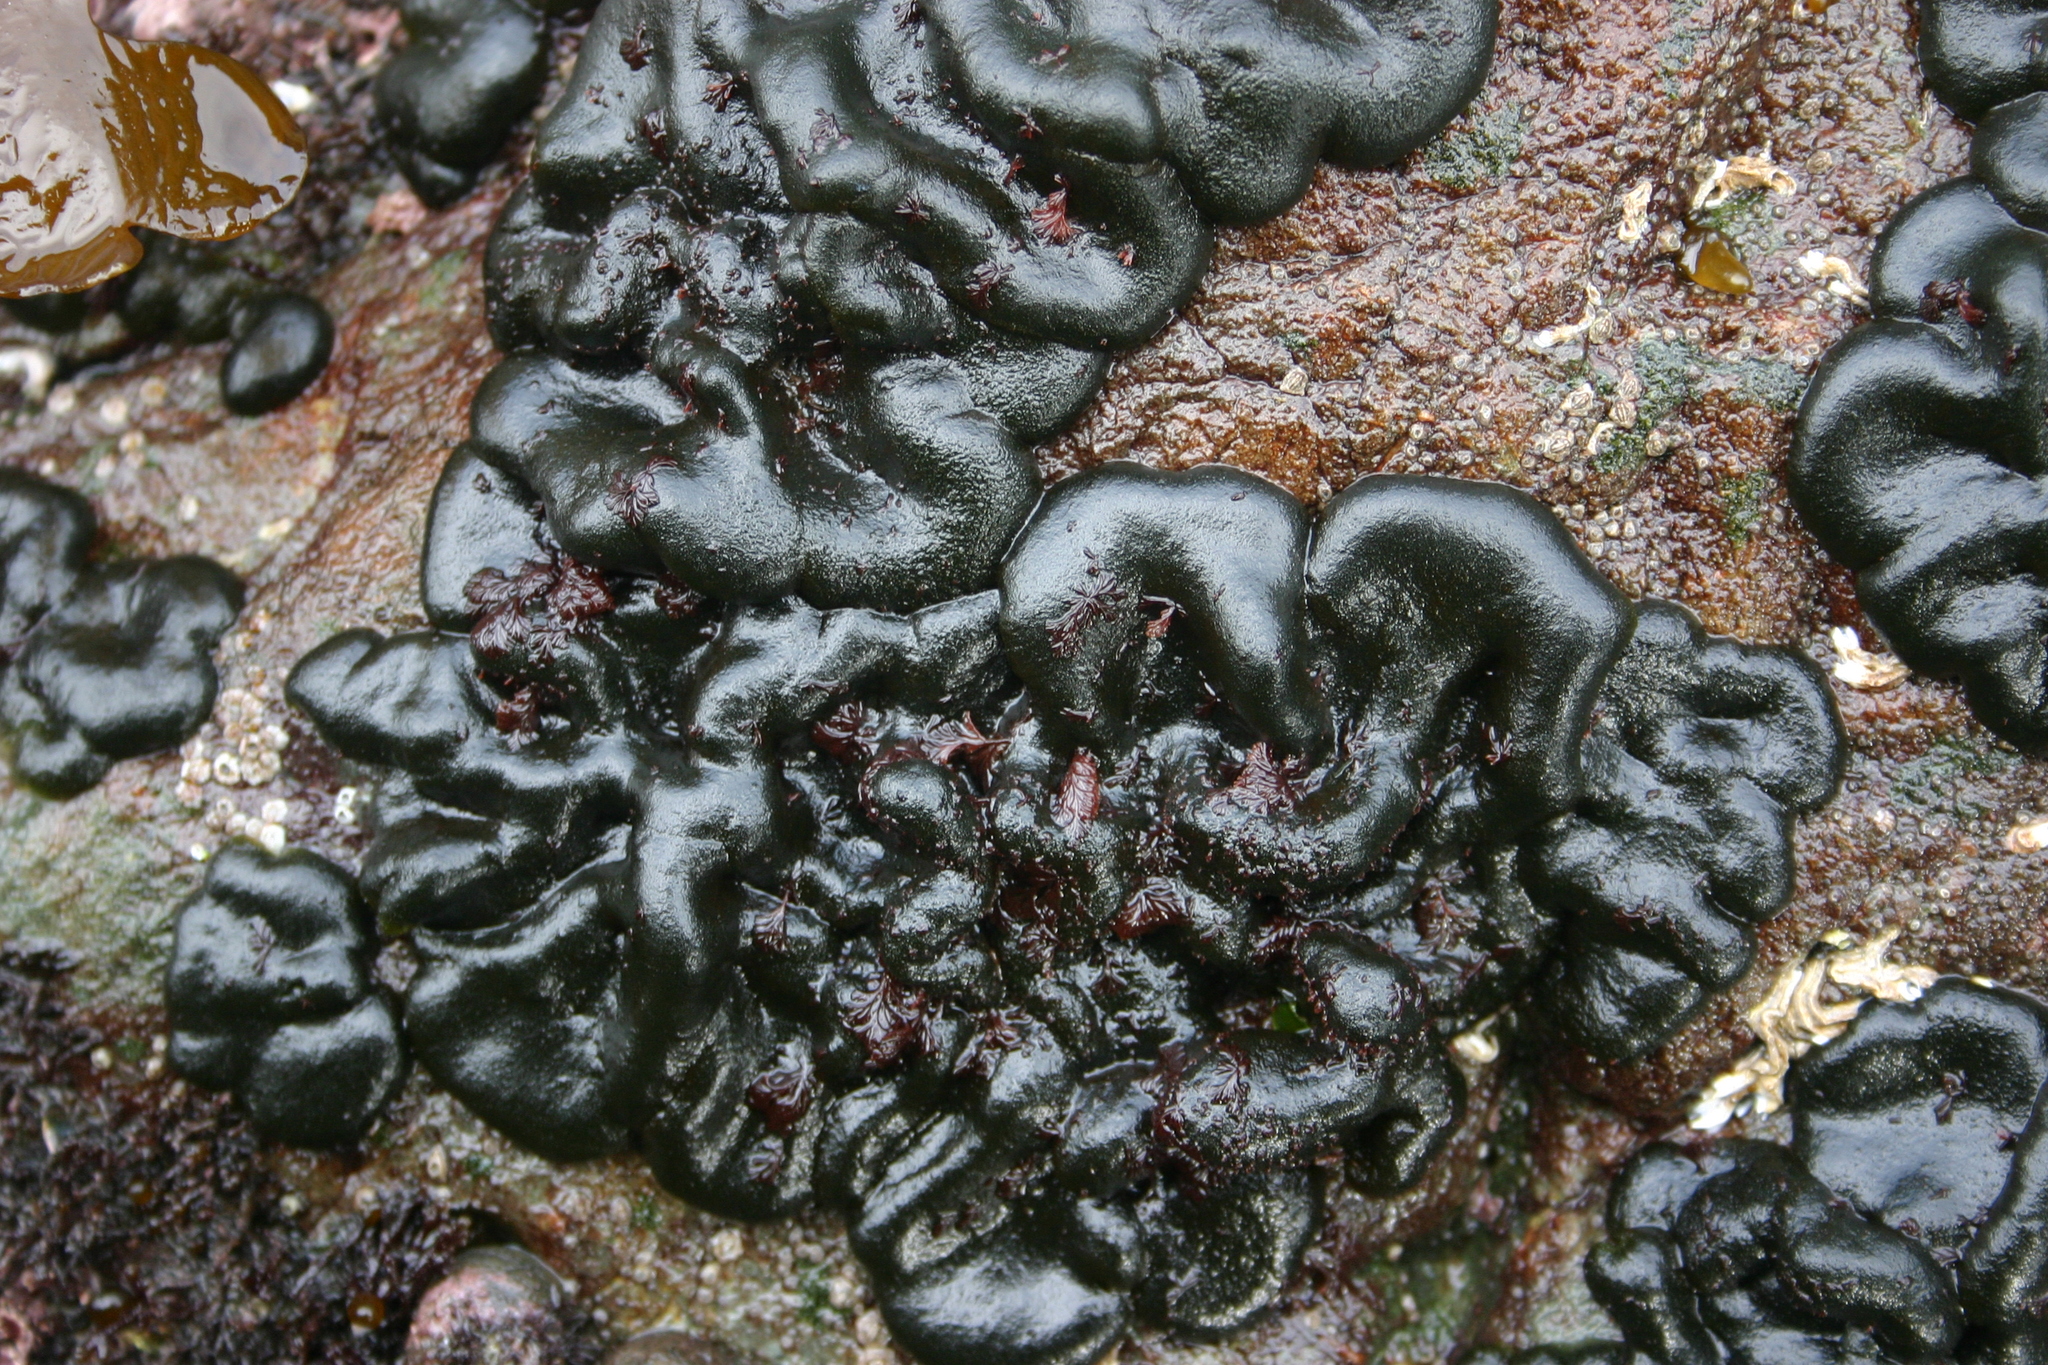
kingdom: Plantae
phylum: Chlorophyta
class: Ulvophyceae
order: Bryopsidales
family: Codiaceae
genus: Codium
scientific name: Codium convolutum
